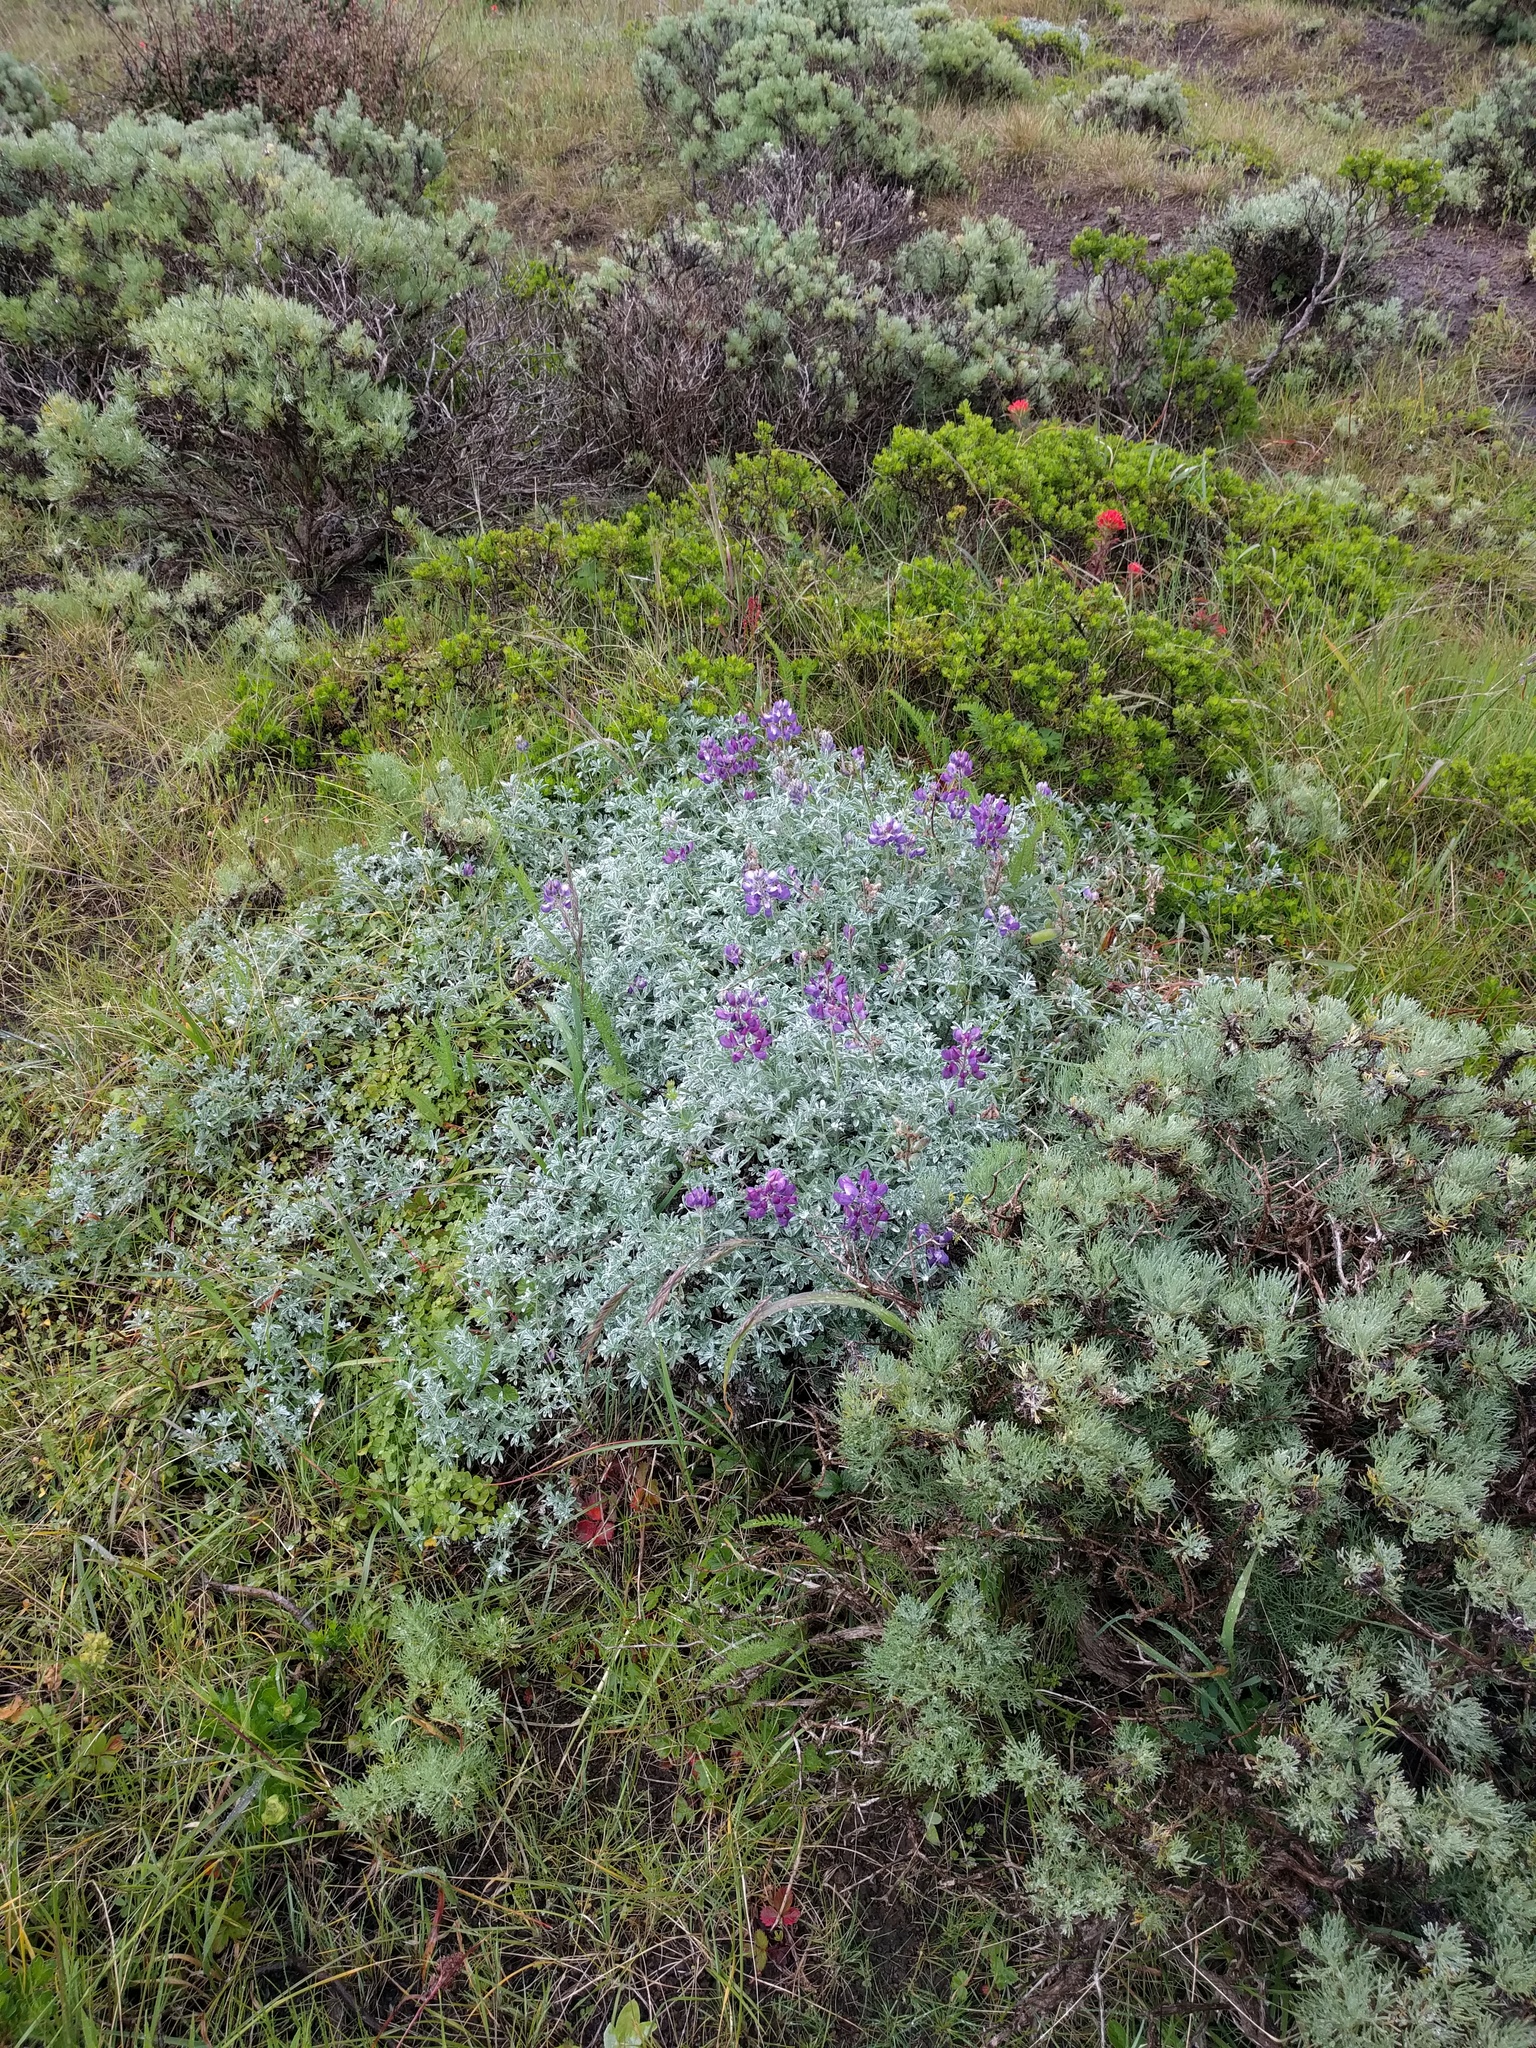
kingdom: Plantae
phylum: Tracheophyta
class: Magnoliopsida
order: Fabales
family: Fabaceae
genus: Lupinus
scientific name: Lupinus albifrons
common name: Foothill lupine
